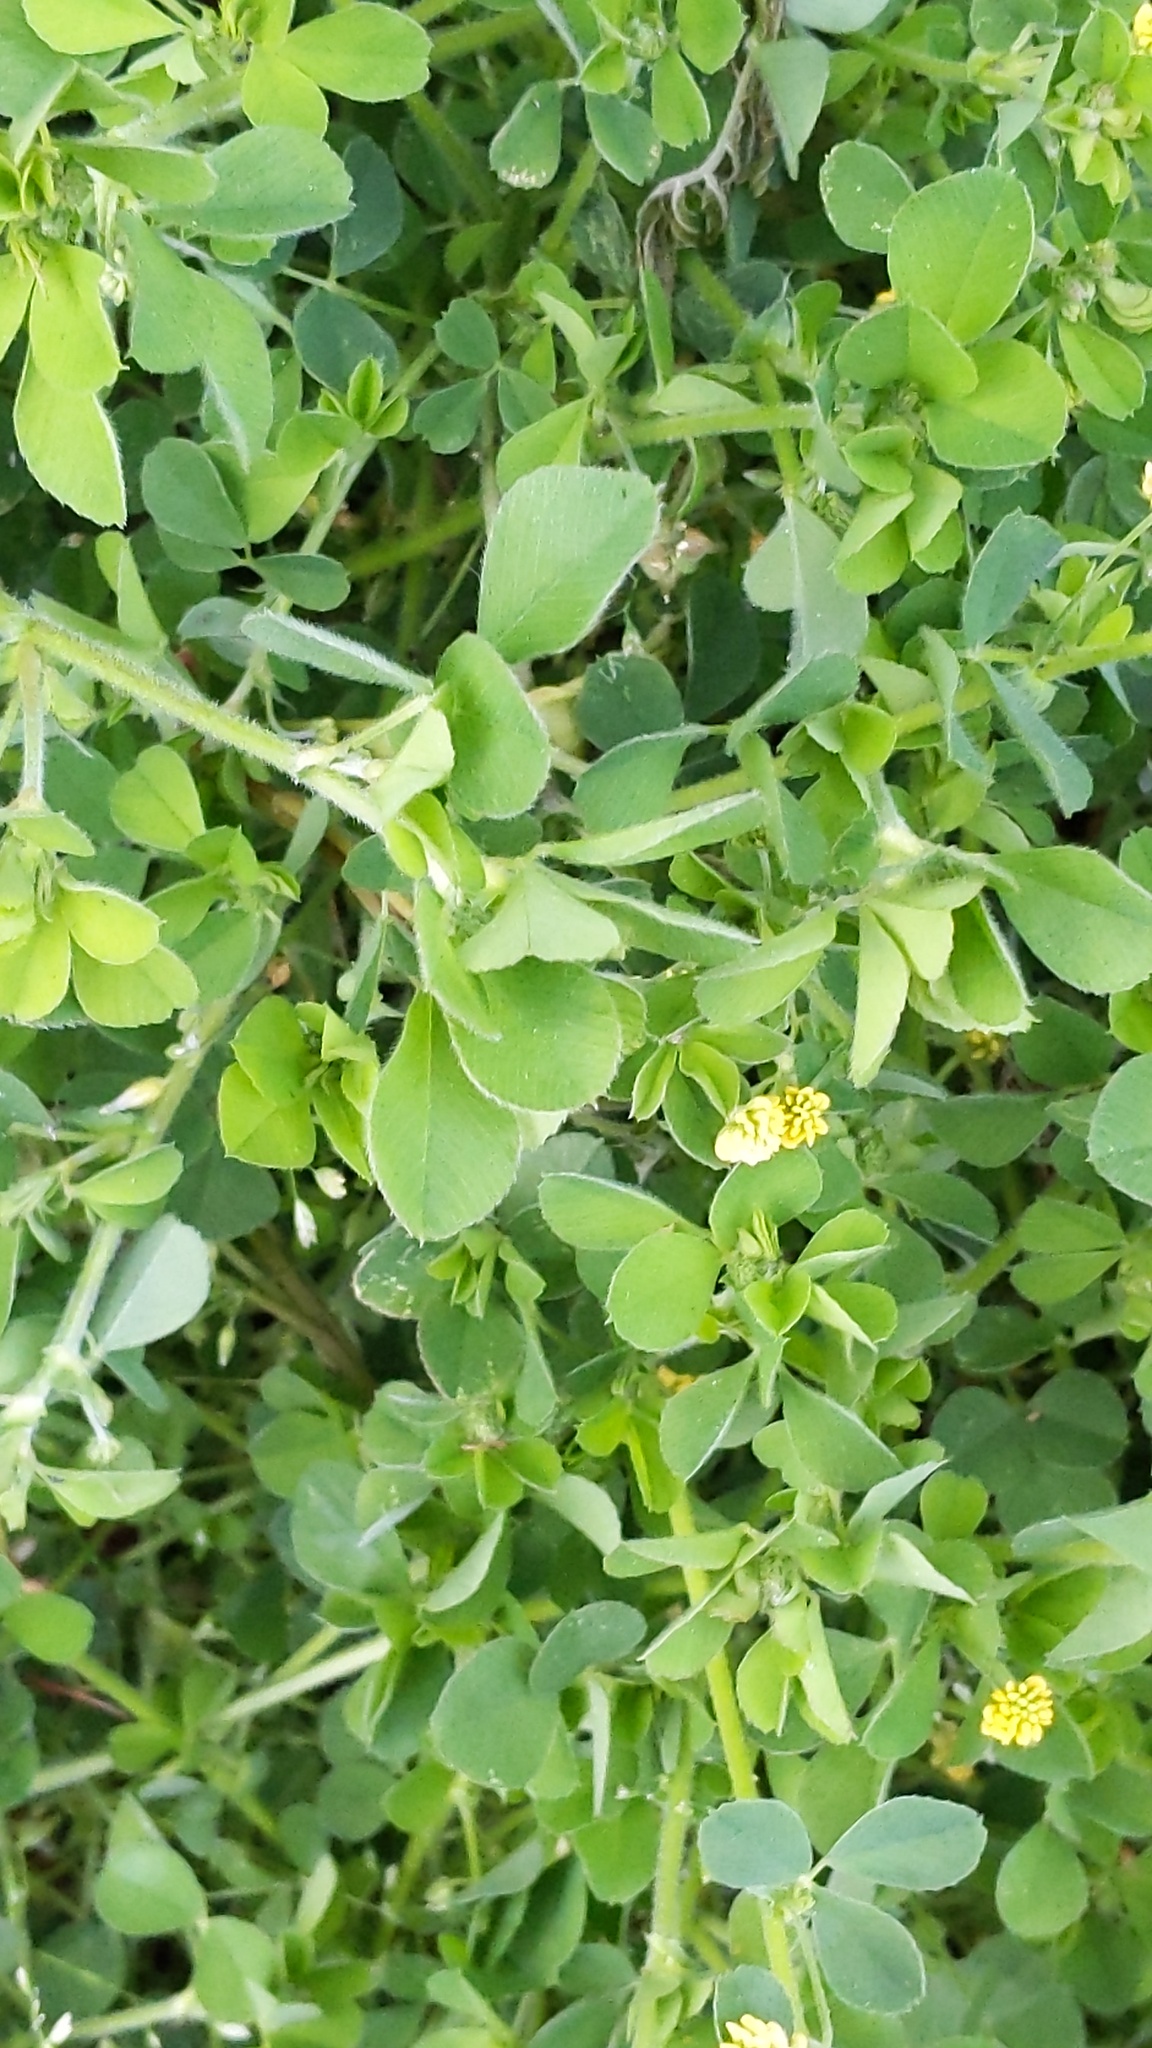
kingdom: Plantae
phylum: Tracheophyta
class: Magnoliopsida
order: Fabales
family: Fabaceae
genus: Medicago
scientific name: Medicago lupulina
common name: Black medick
